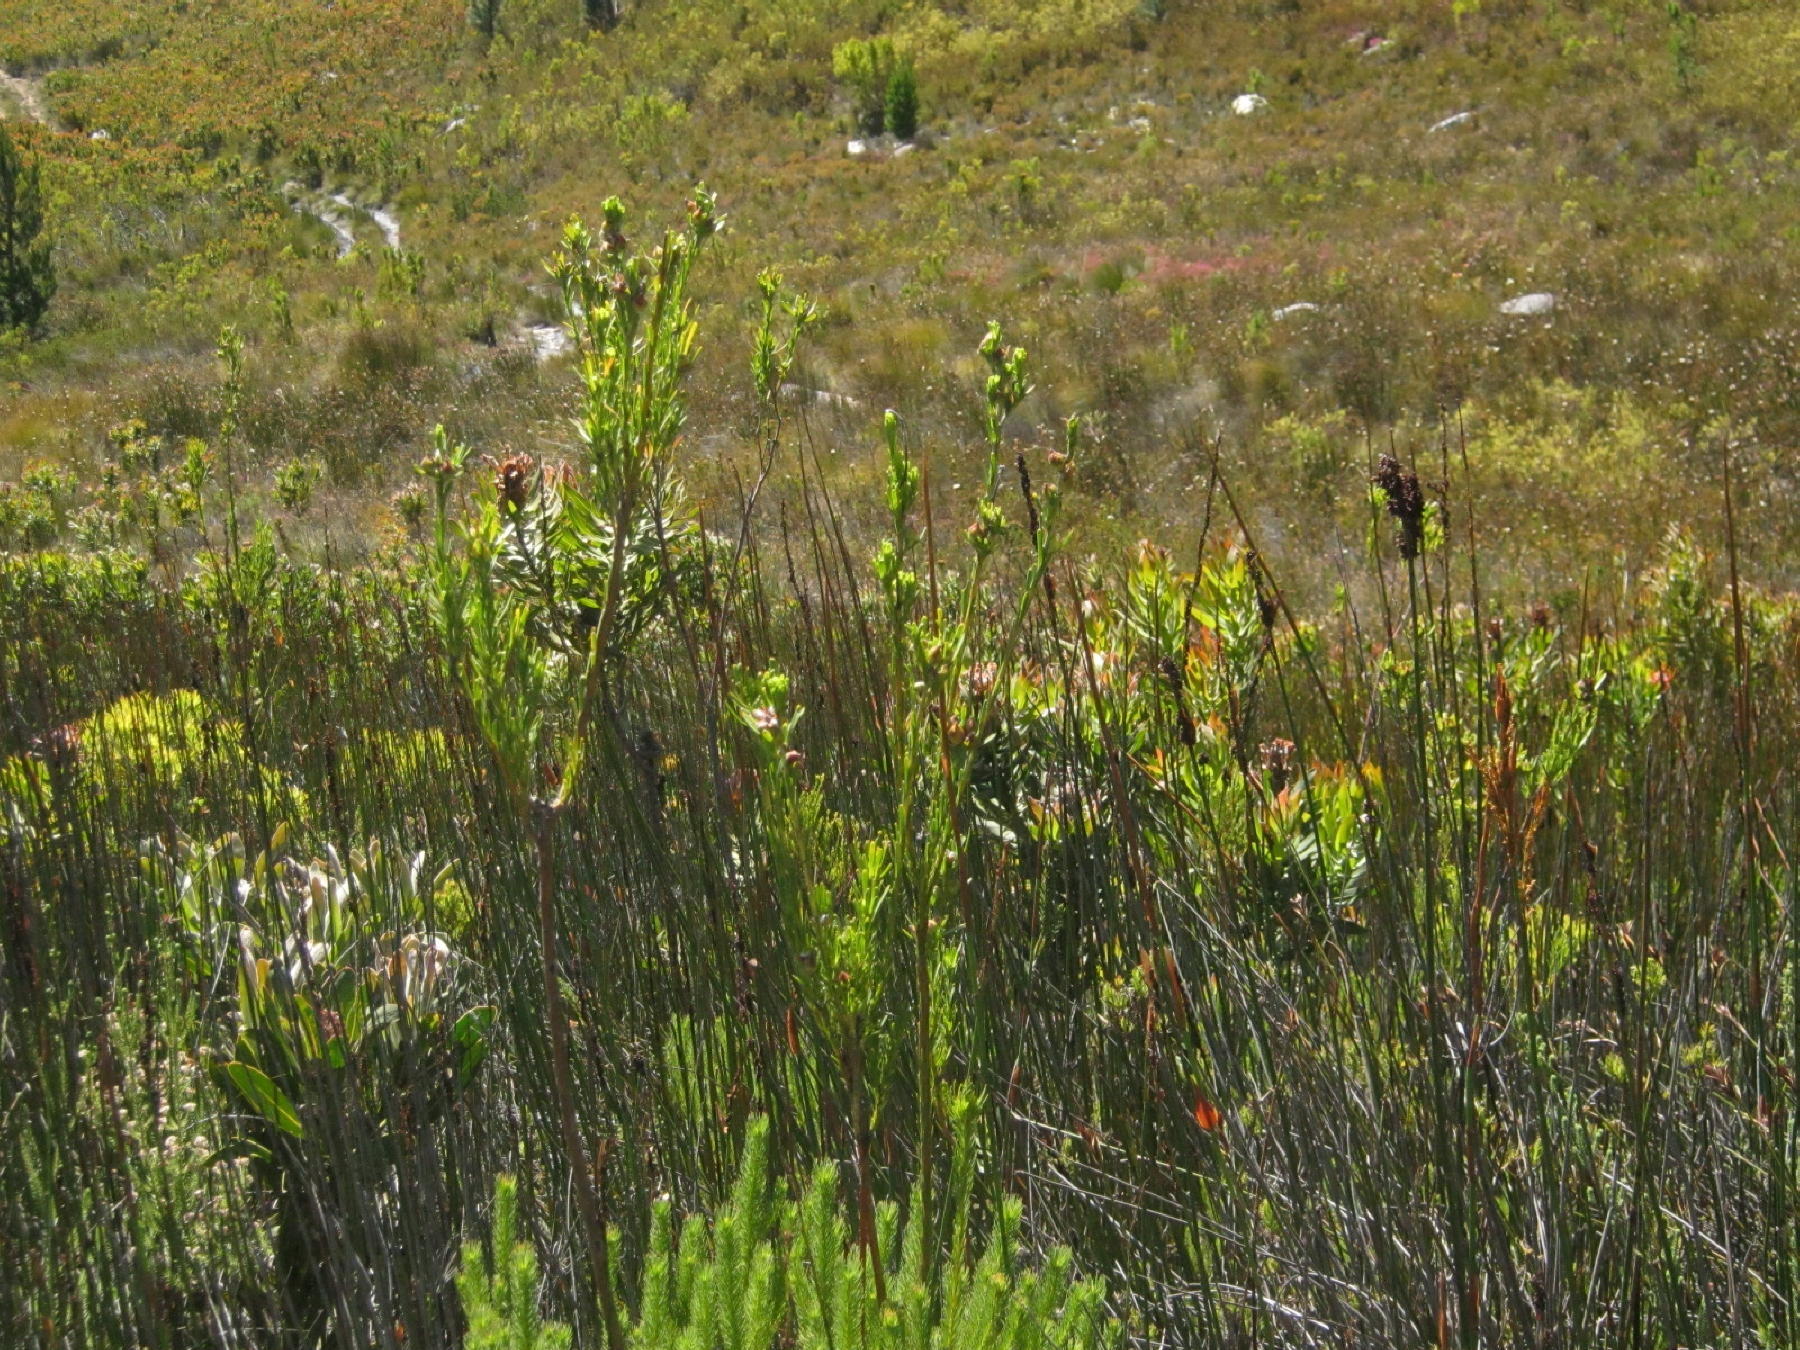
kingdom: Plantae
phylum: Tracheophyta
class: Magnoliopsida
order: Proteales
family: Proteaceae
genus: Leucadendron
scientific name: Leucadendron ericifolium
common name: Erica-leaved conebush
